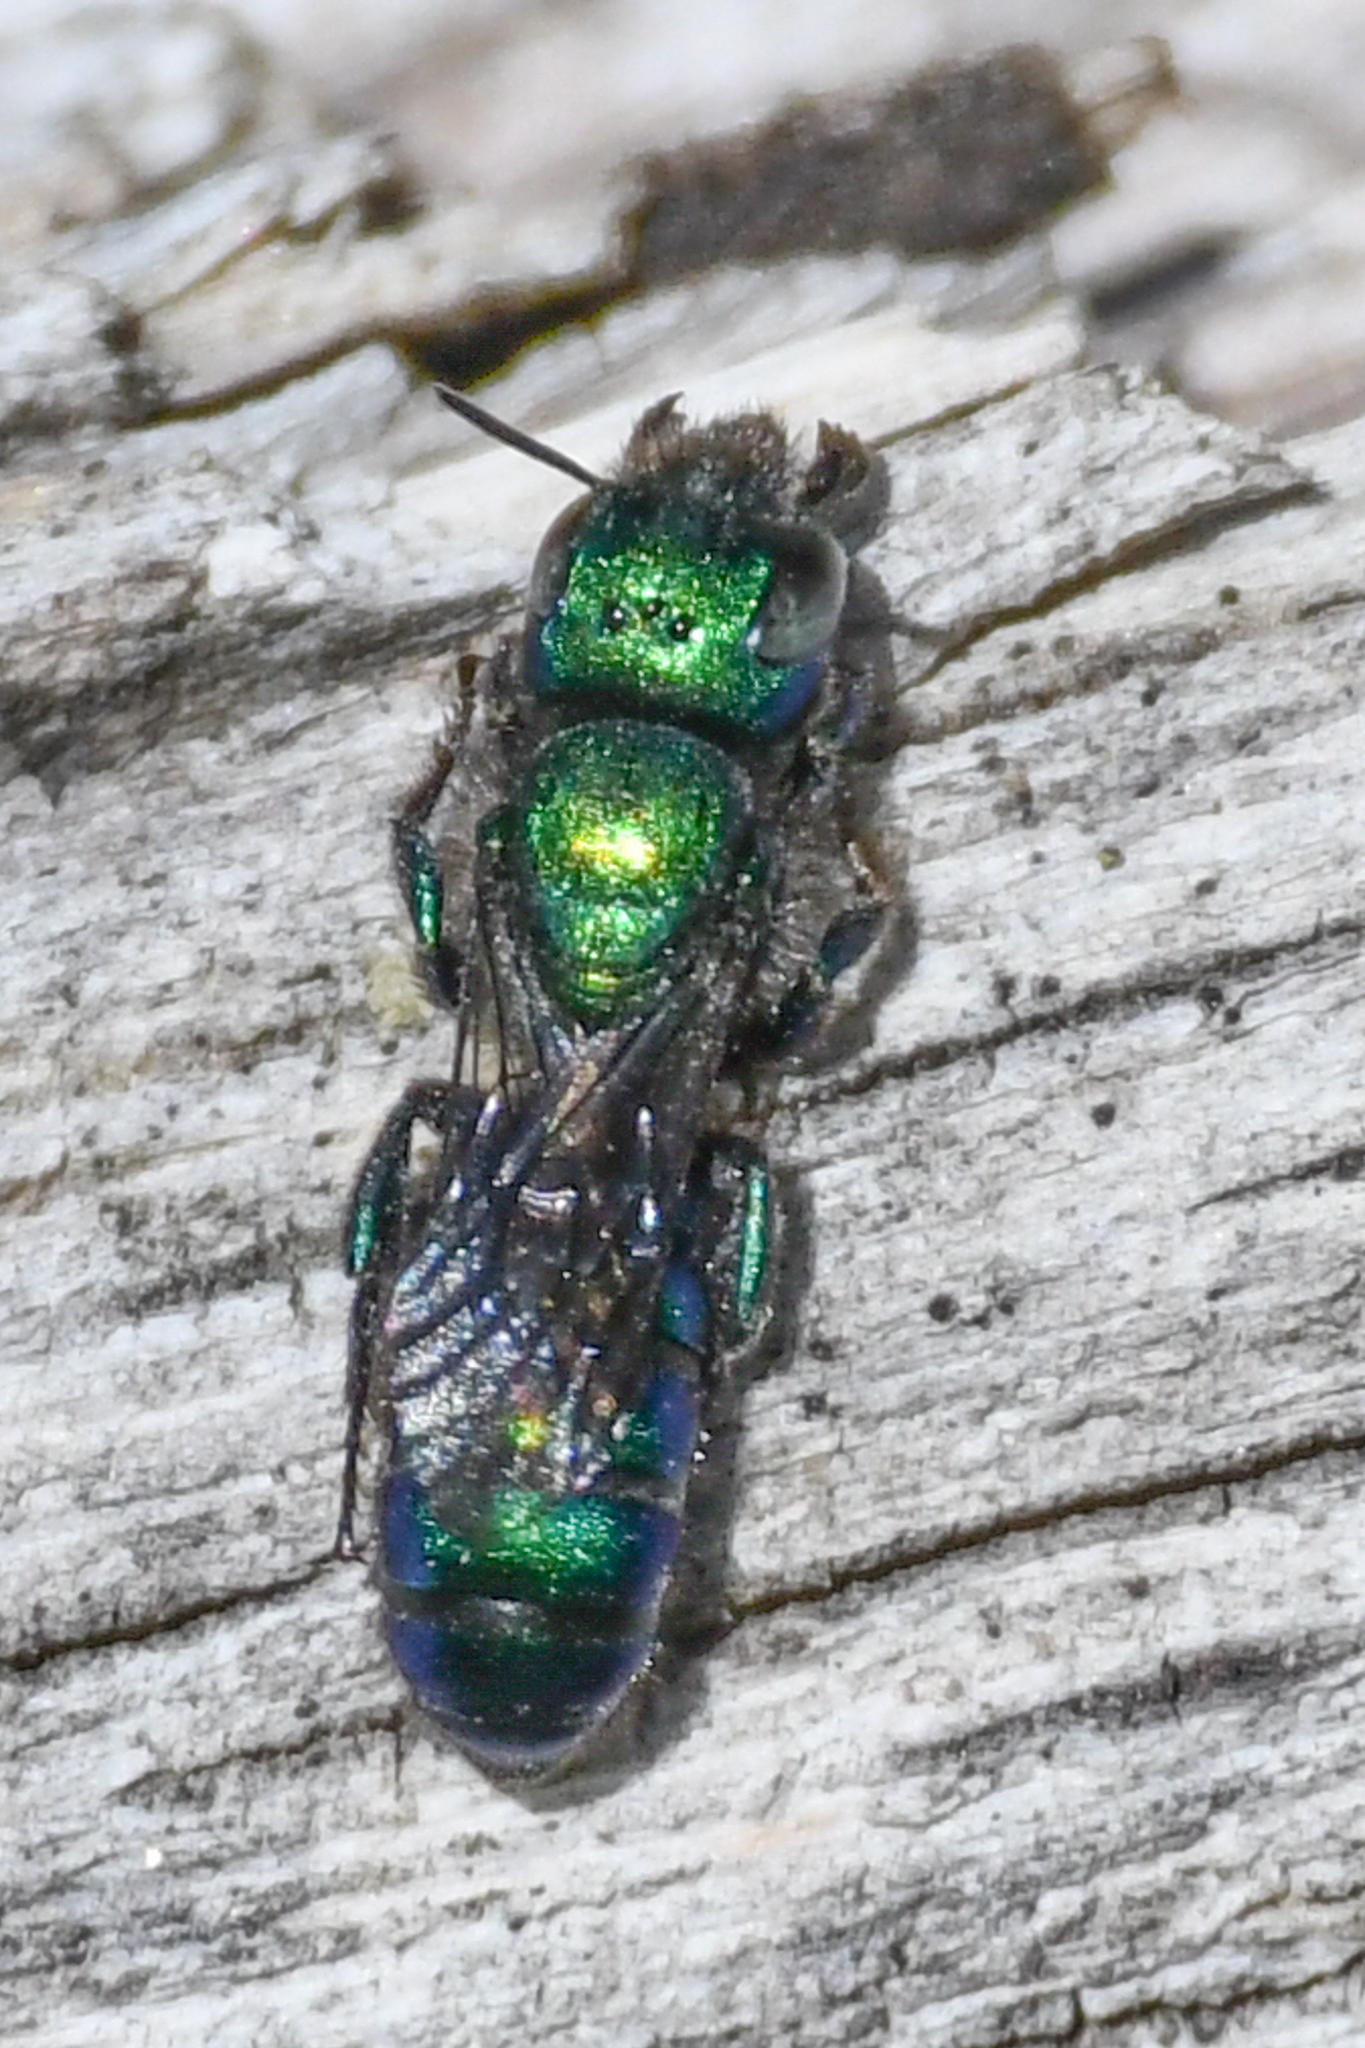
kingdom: Animalia
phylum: Arthropoda
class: Insecta
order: Hymenoptera
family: Megachilidae
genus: Hoplitis
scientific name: Hoplitis fulgida
